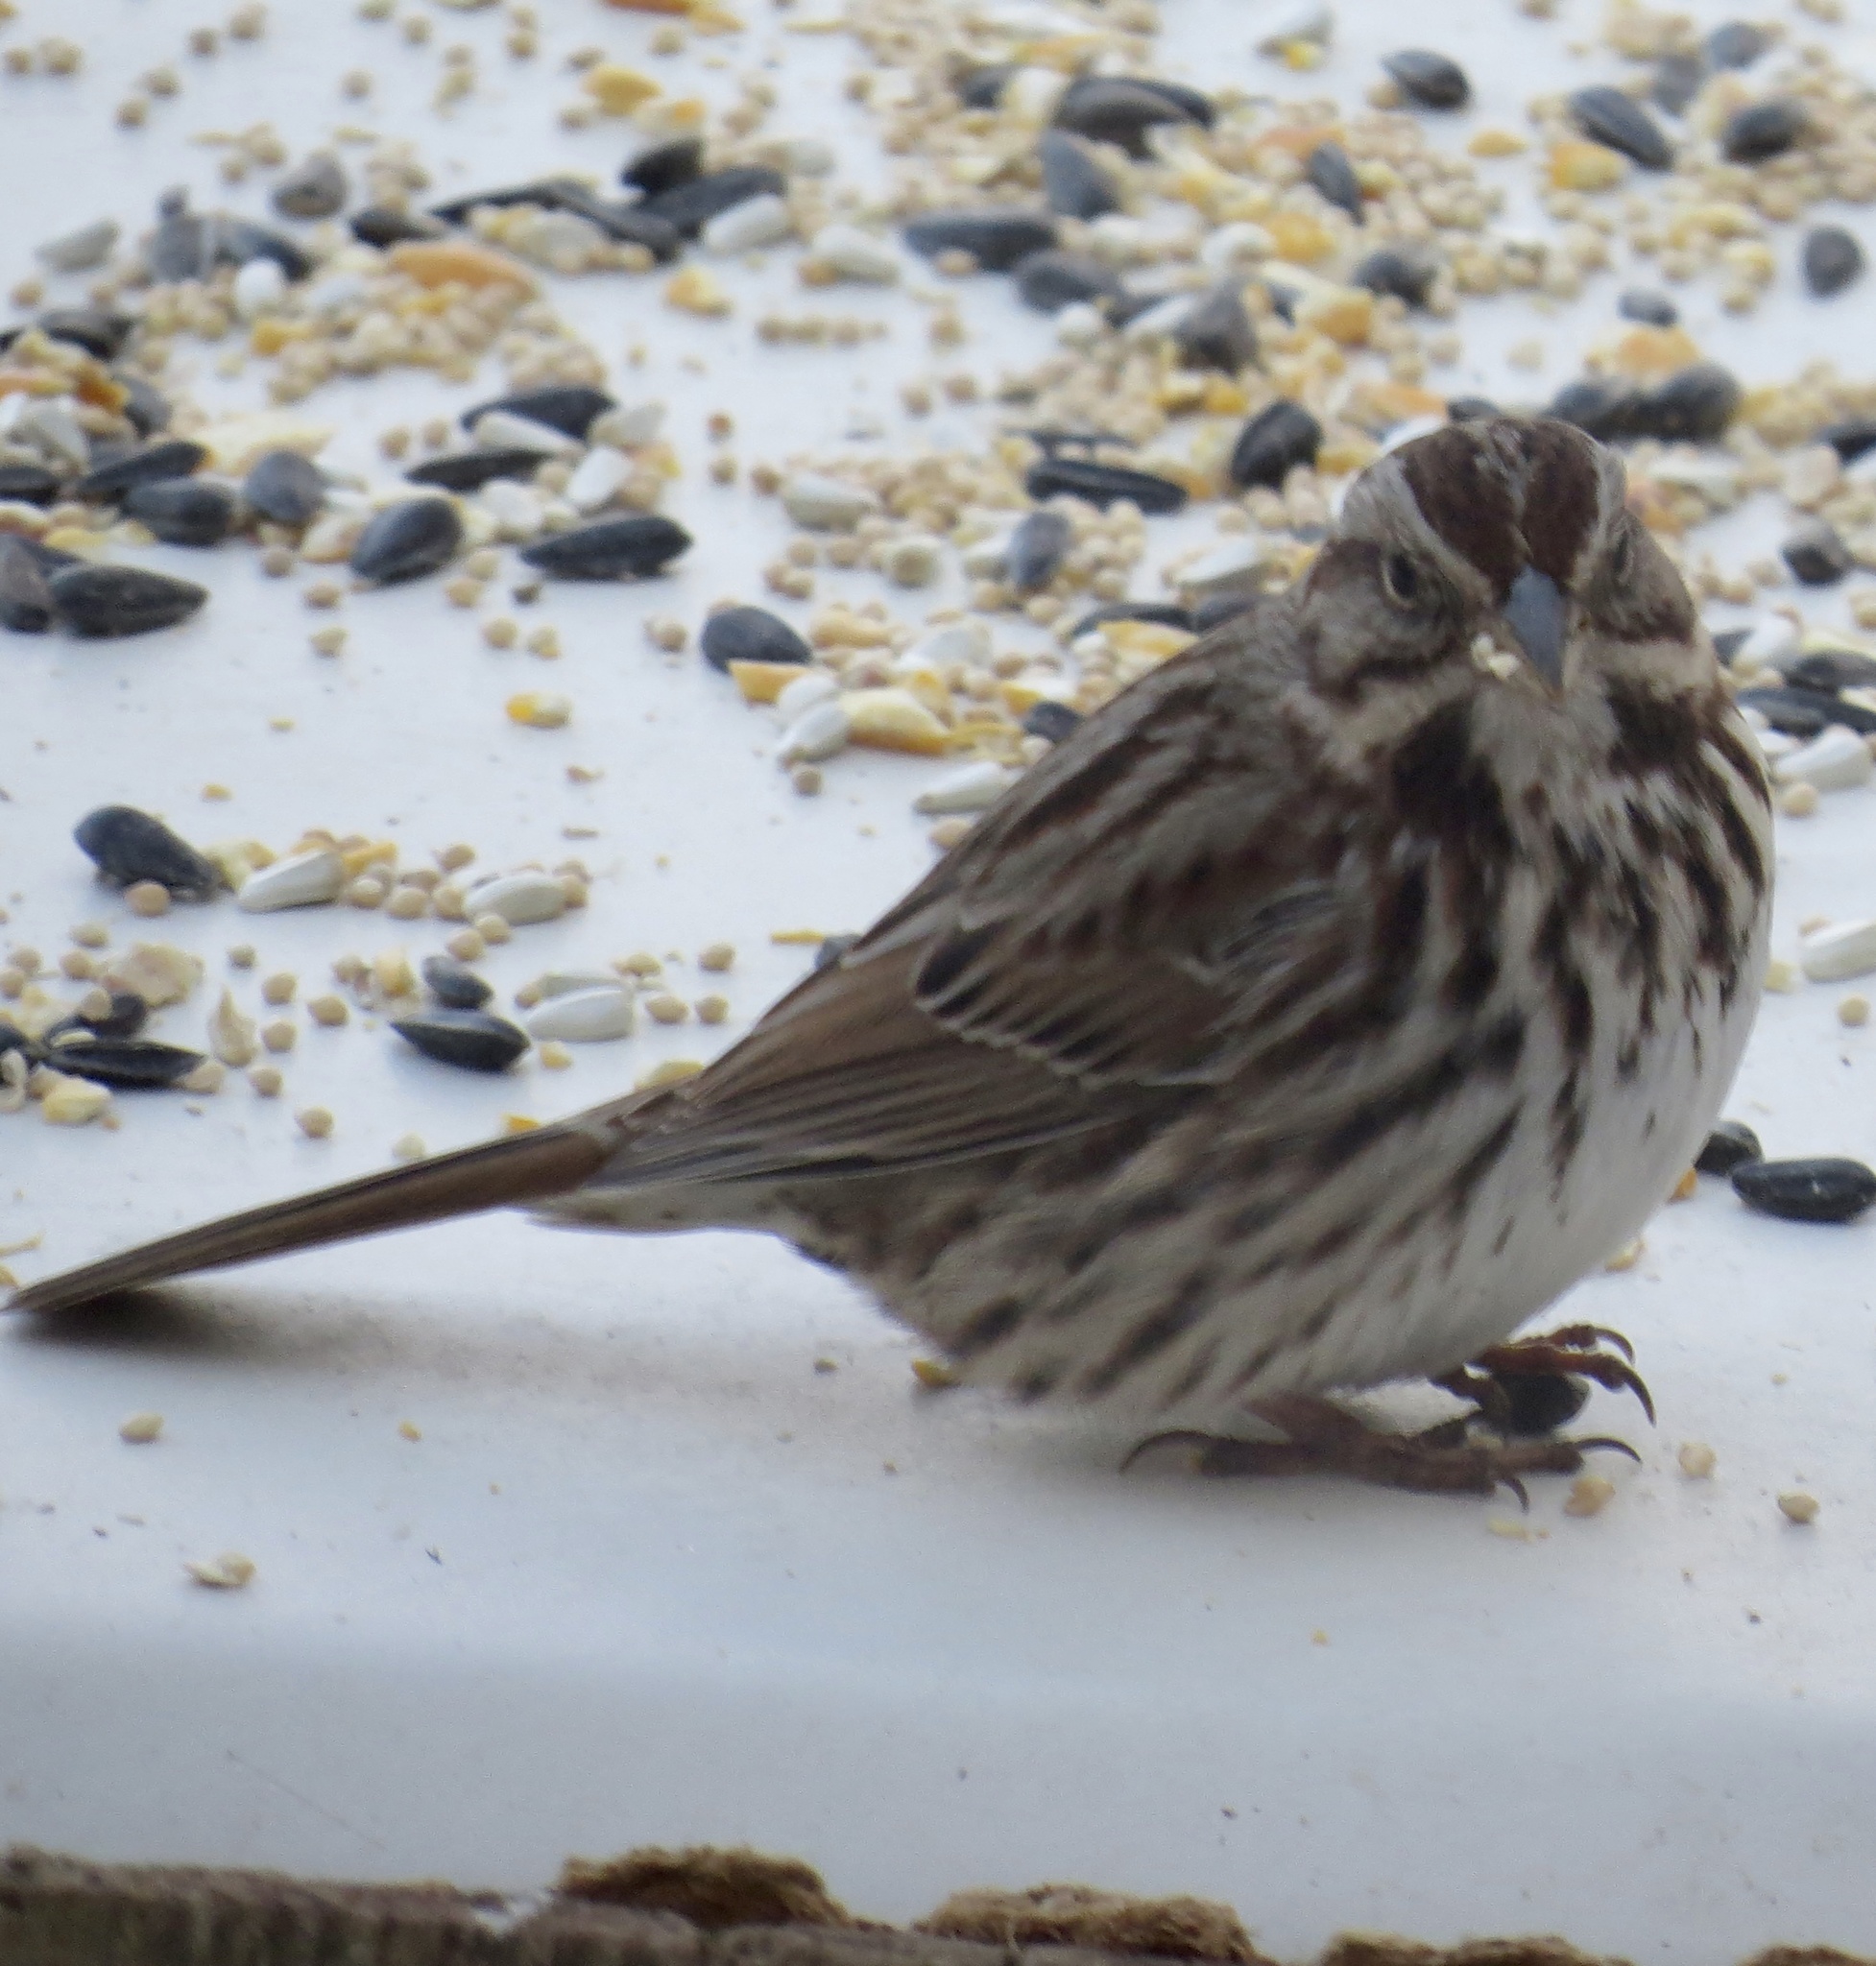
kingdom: Animalia
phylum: Chordata
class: Aves
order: Passeriformes
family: Passerellidae
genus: Melospiza
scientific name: Melospiza melodia
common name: Song sparrow
